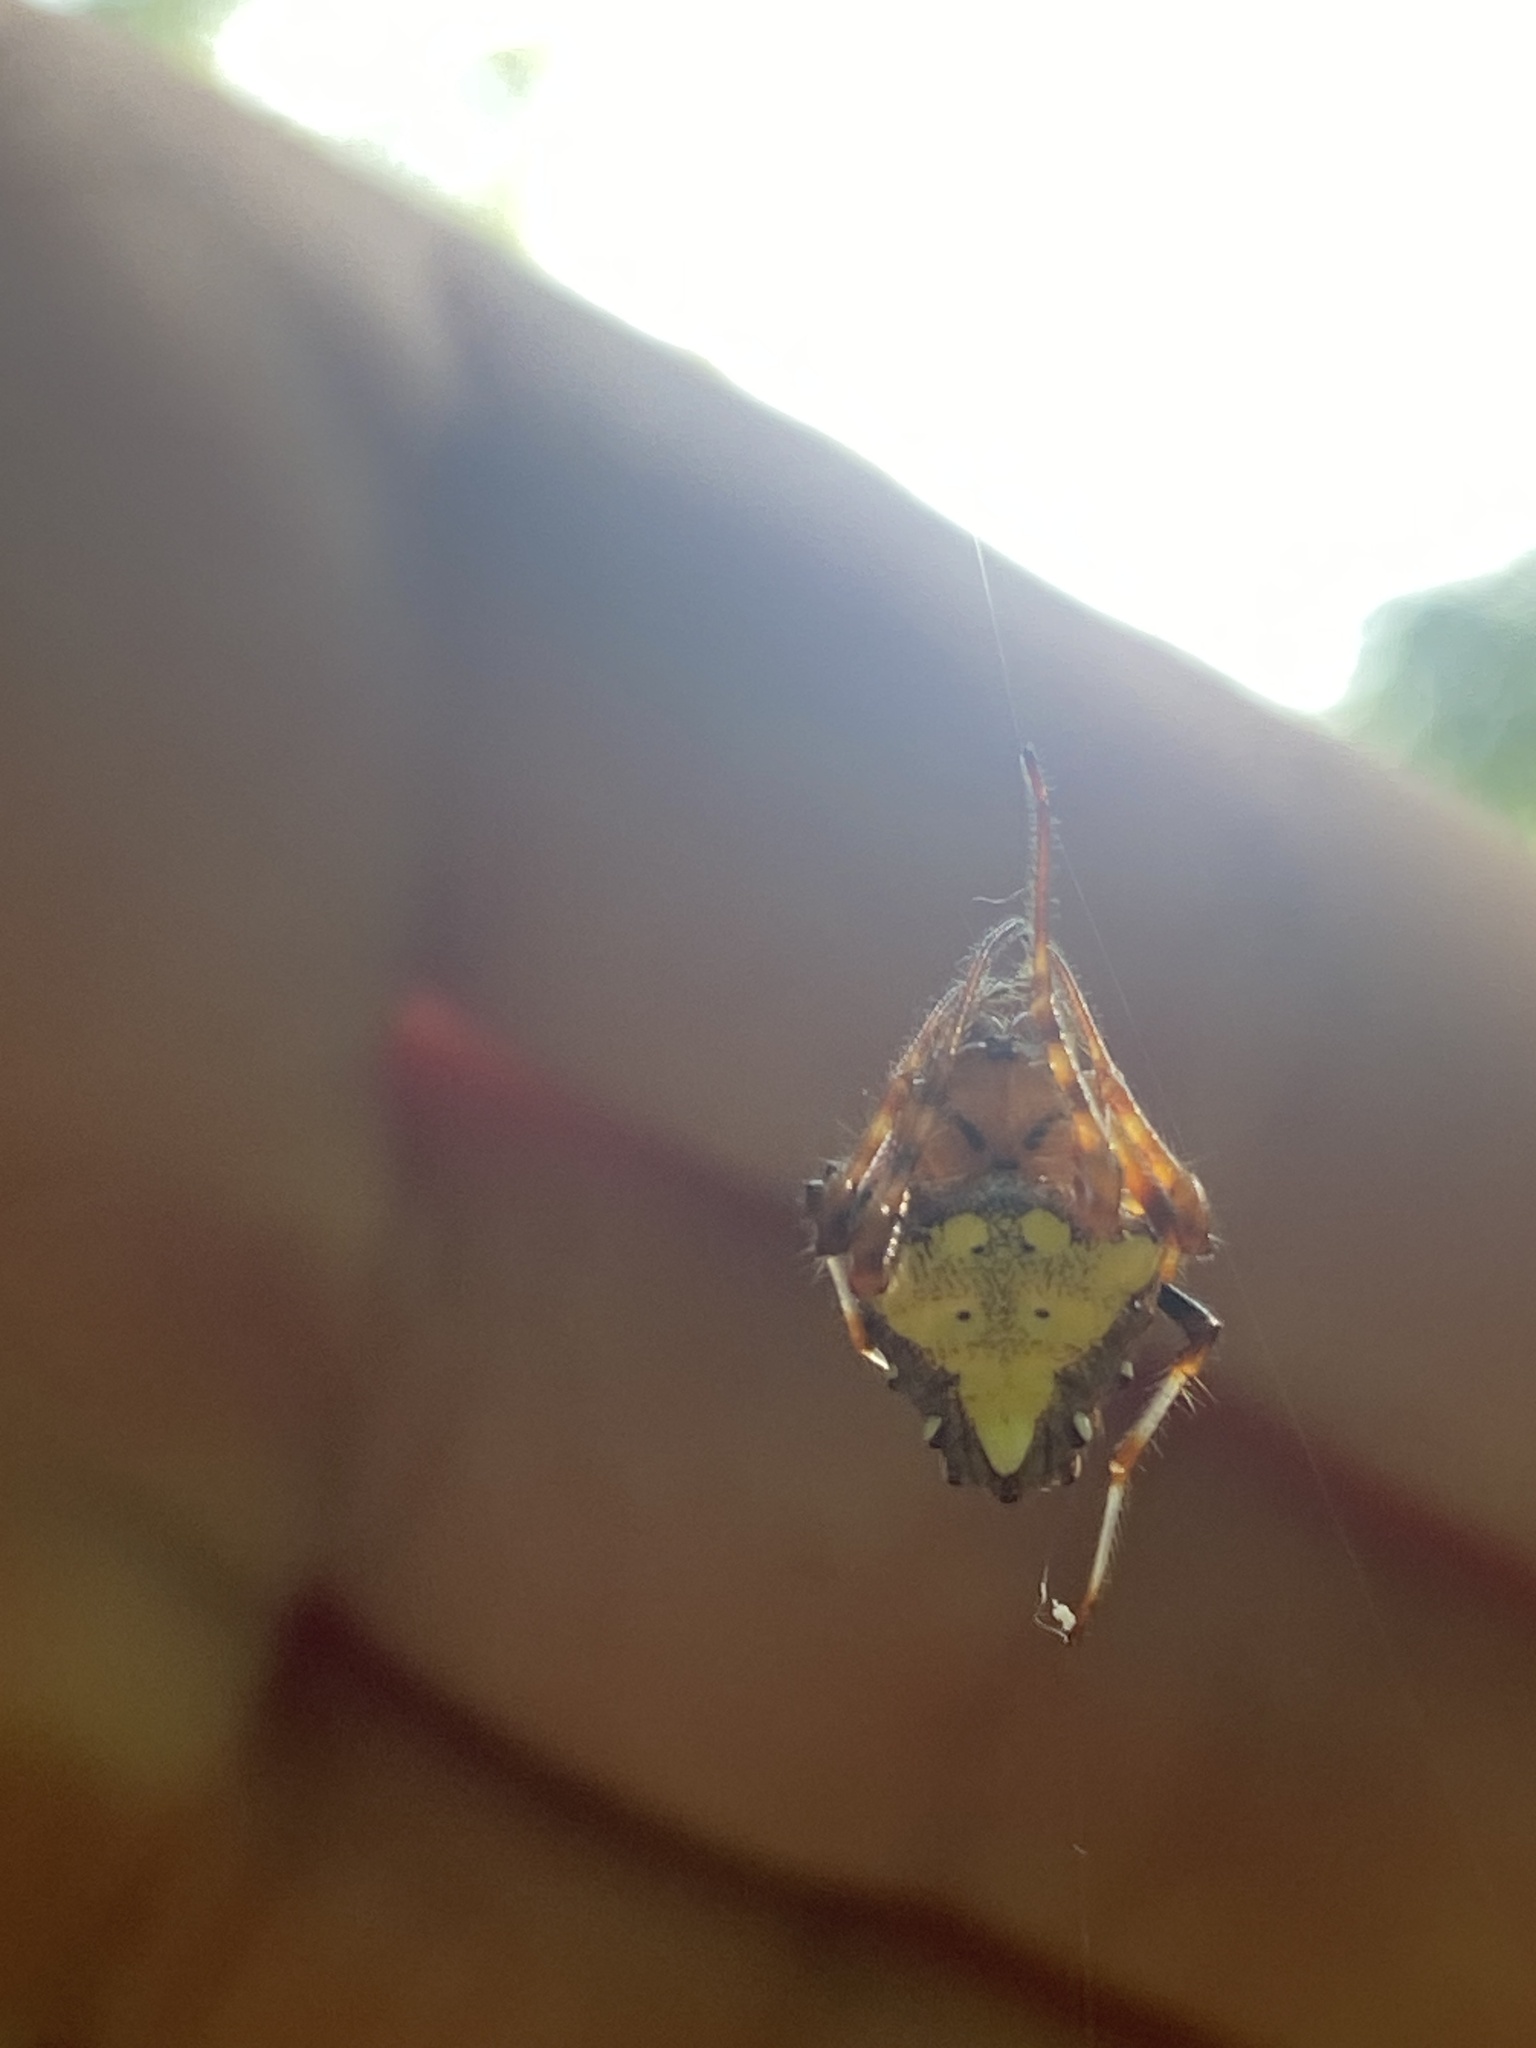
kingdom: Animalia
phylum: Arthropoda
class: Arachnida
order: Araneae
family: Araneidae
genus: Verrucosa
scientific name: Verrucosa arenata
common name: Orb weavers
